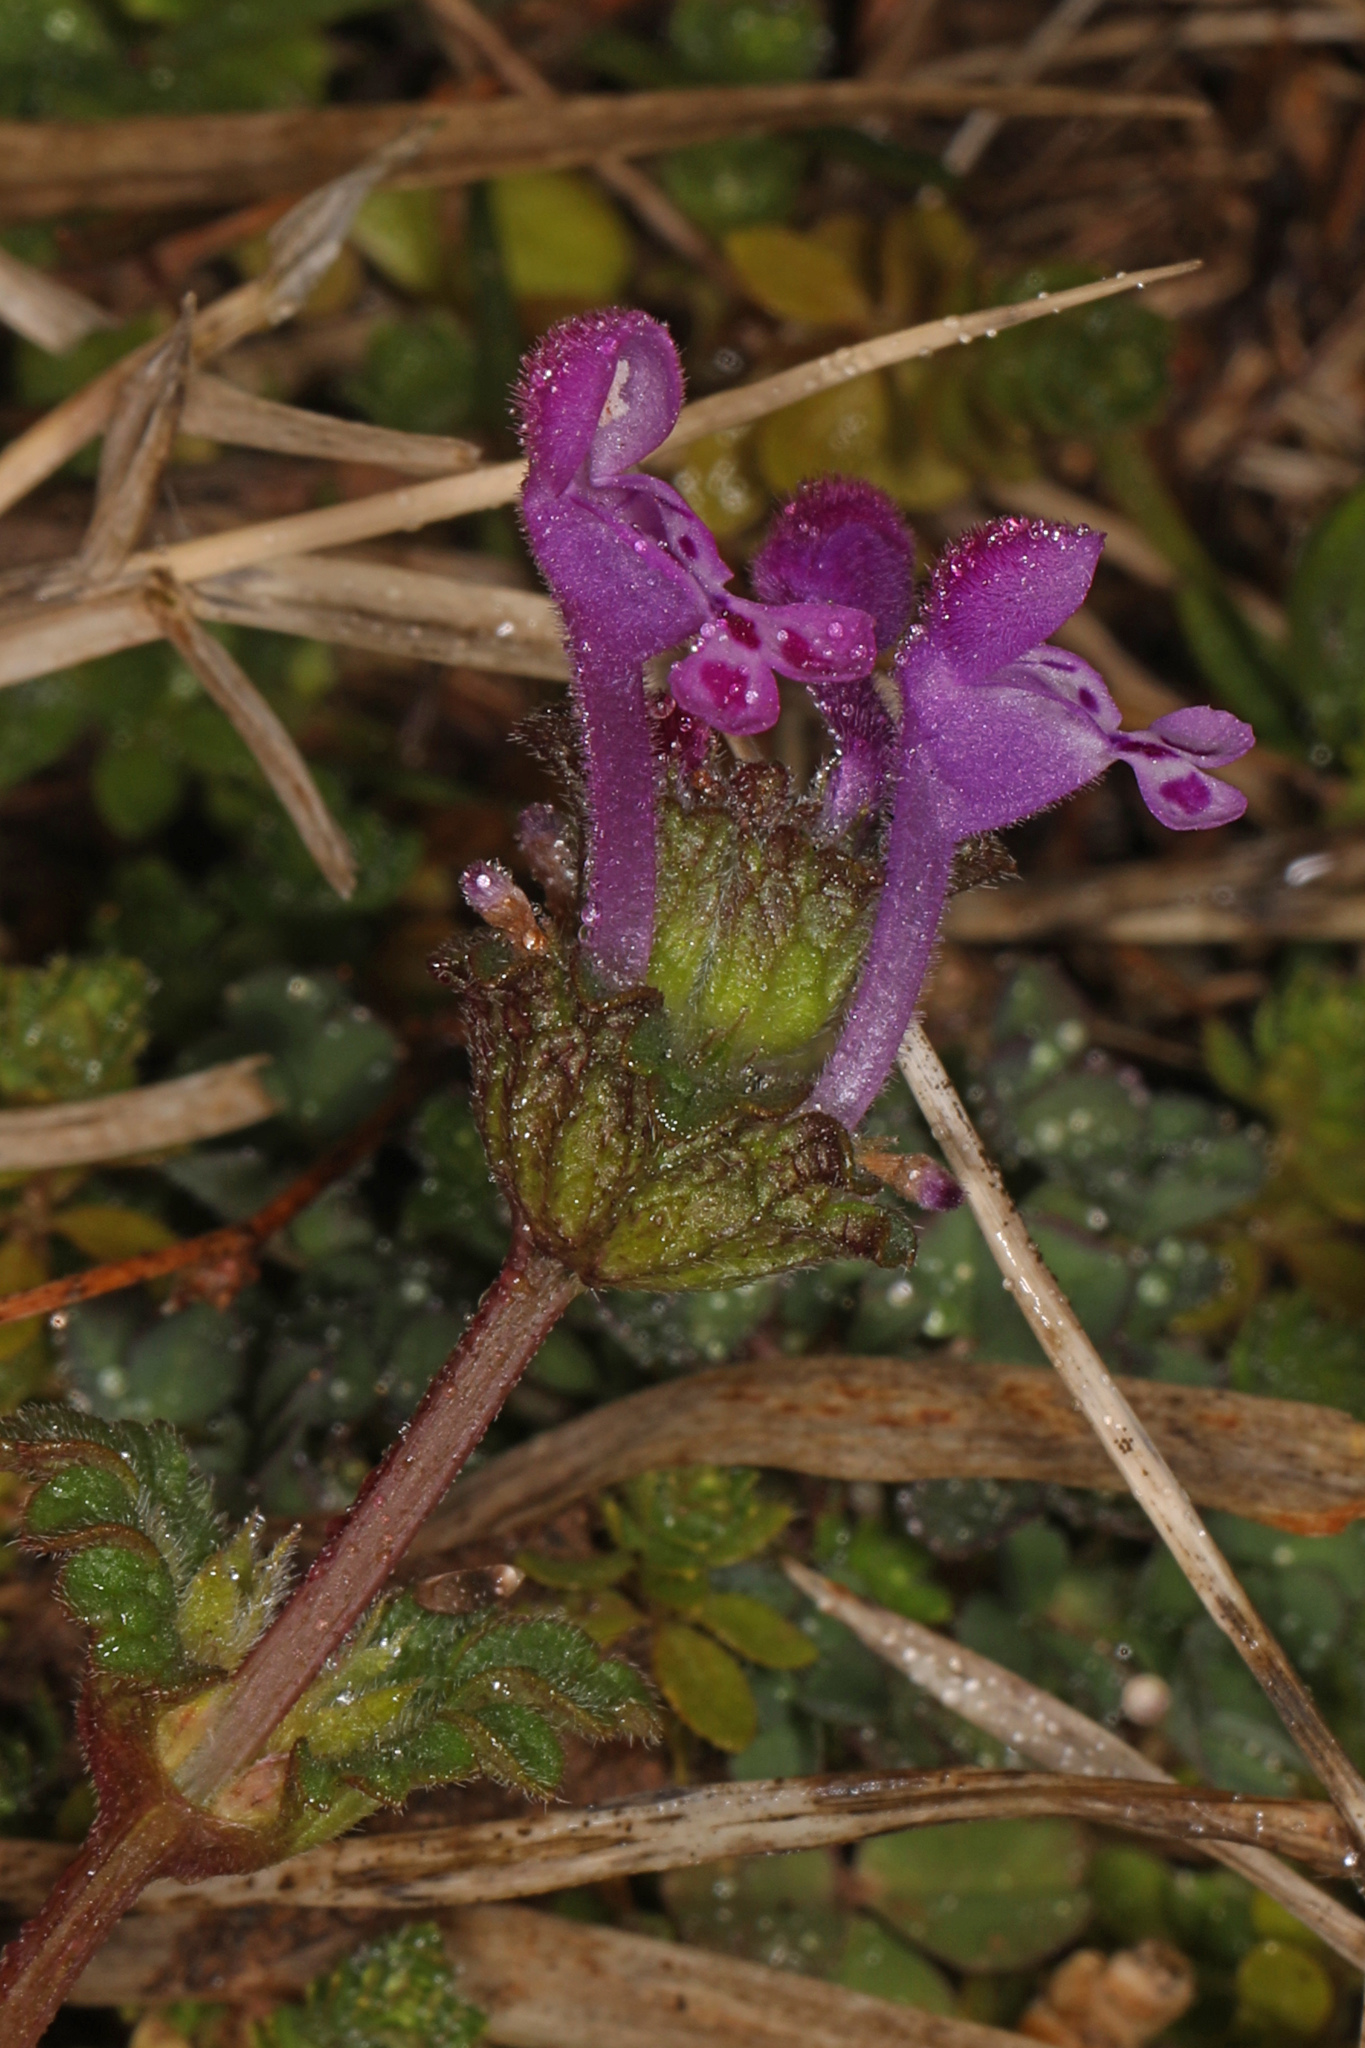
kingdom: Plantae
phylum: Tracheophyta
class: Magnoliopsida
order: Lamiales
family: Lamiaceae
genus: Lamium
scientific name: Lamium amplexicaule
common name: Henbit dead-nettle
